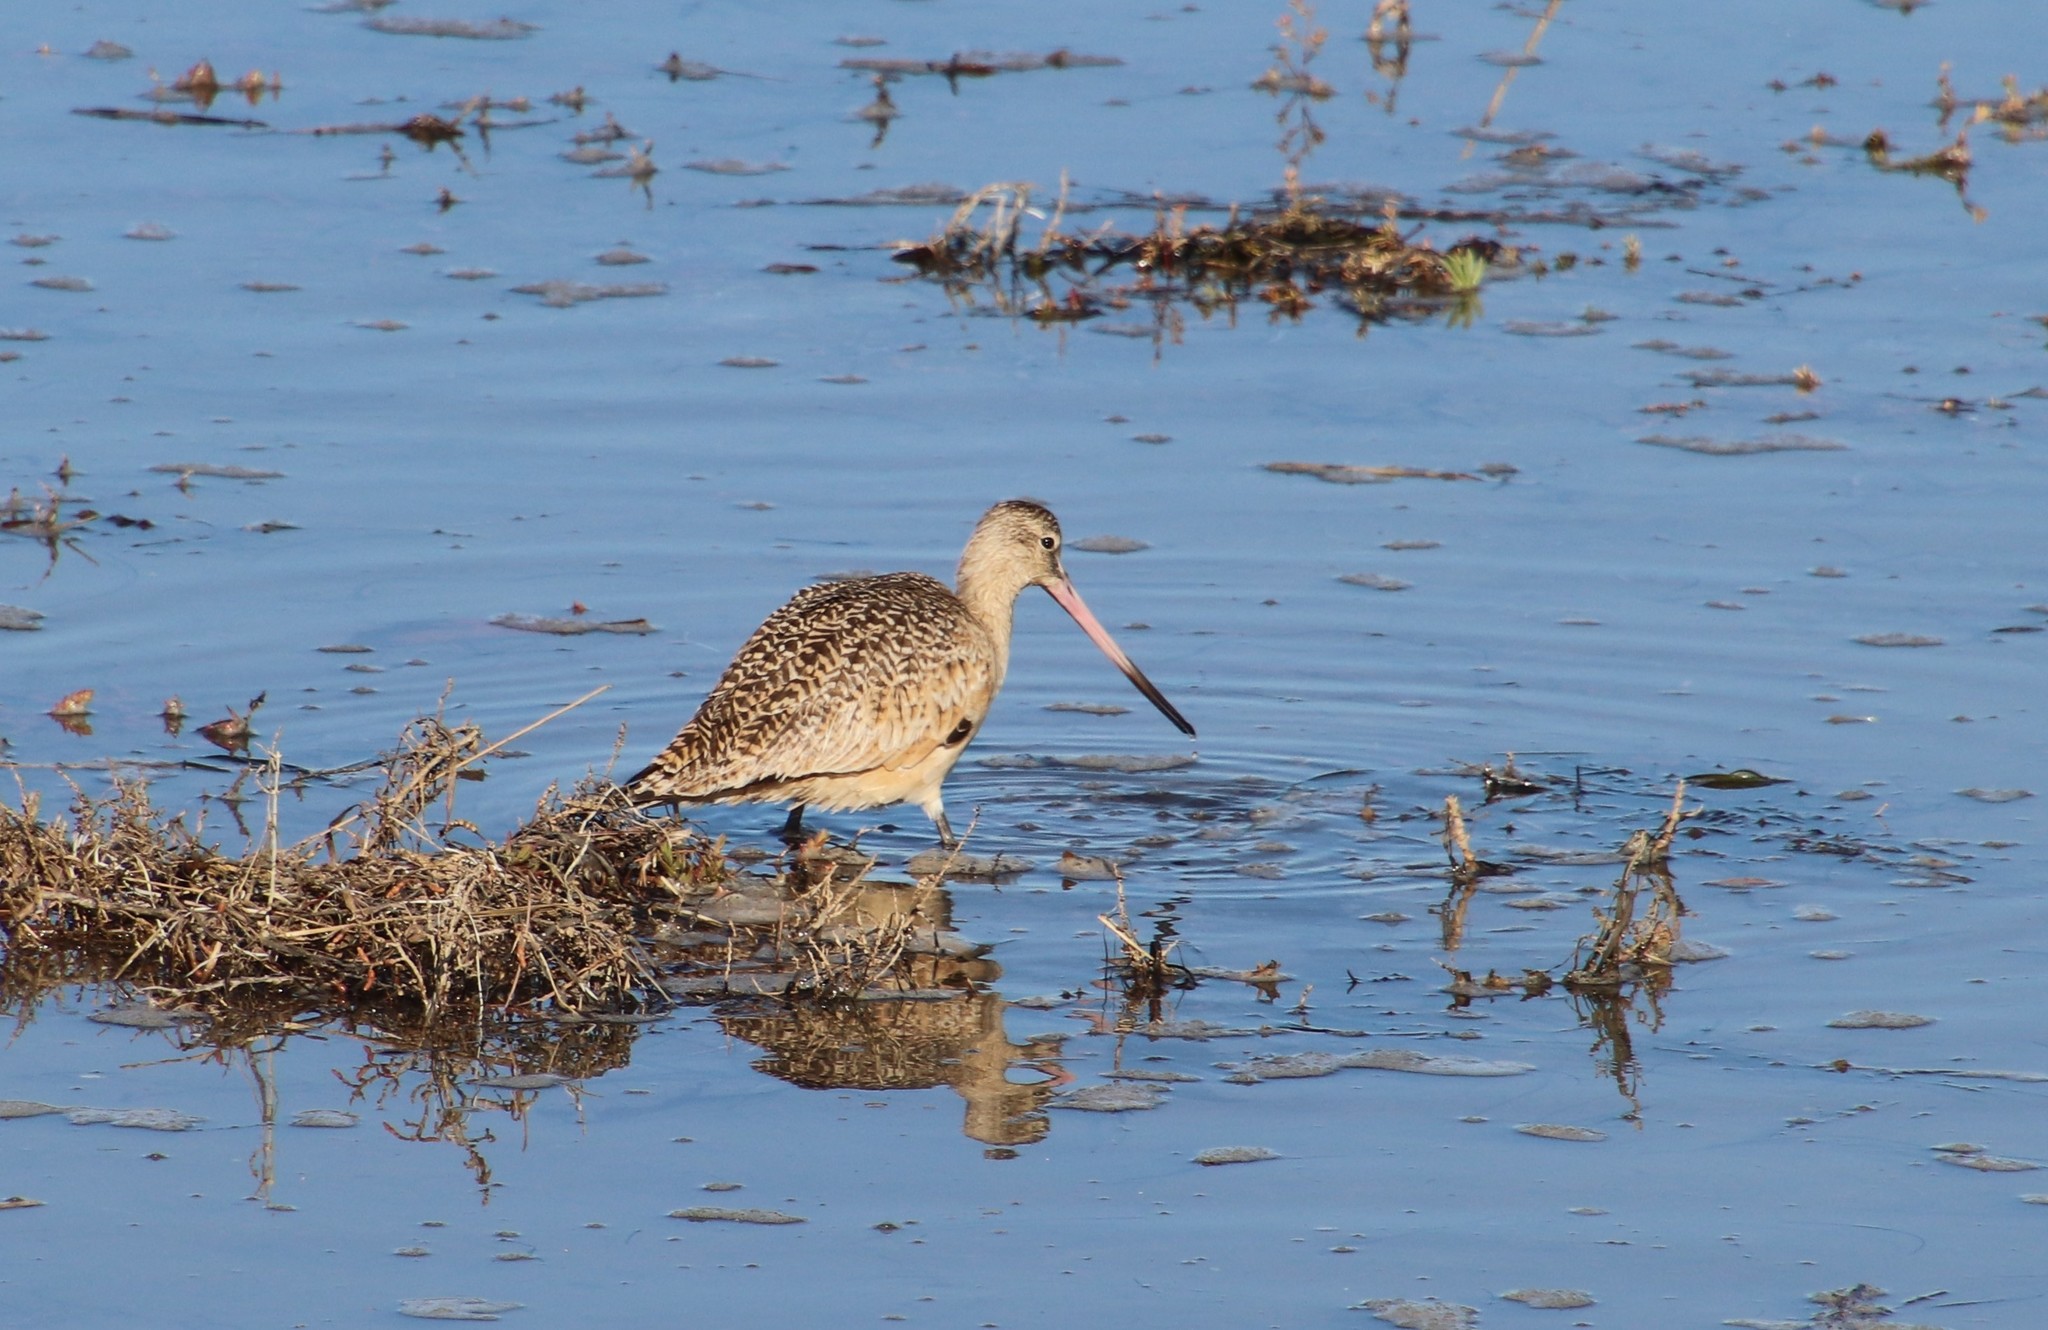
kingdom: Animalia
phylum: Chordata
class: Aves
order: Charadriiformes
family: Scolopacidae
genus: Limosa
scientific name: Limosa fedoa
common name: Marbled godwit
